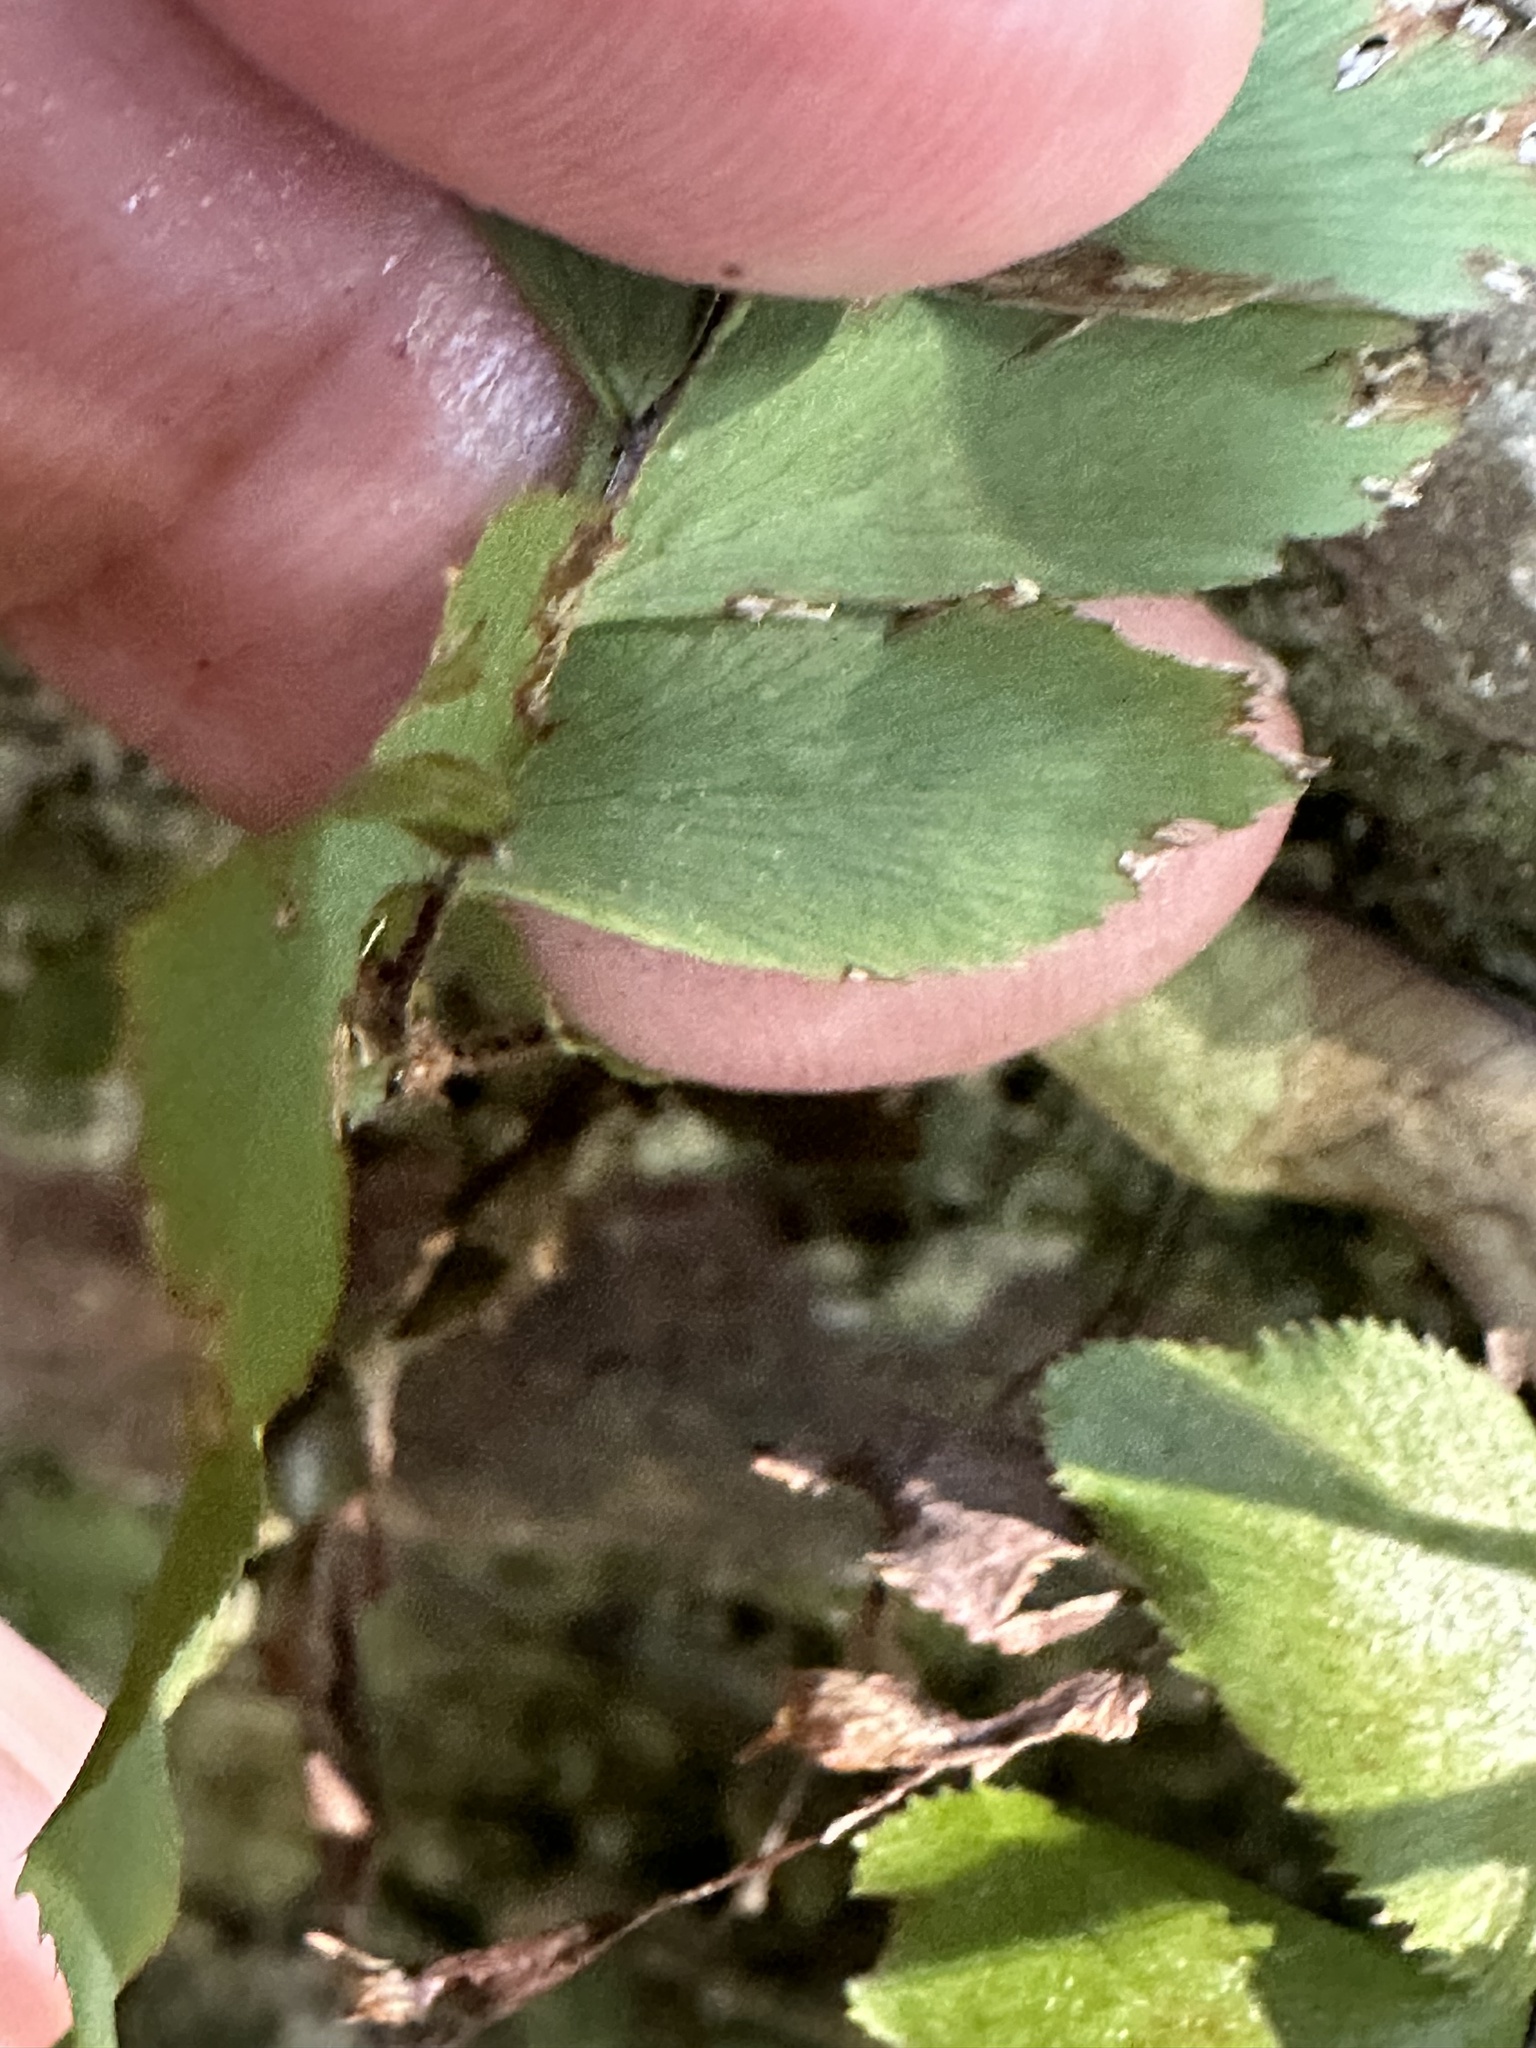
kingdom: Plantae
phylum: Tracheophyta
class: Polypodiopsida
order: Polypodiales
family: Pteridaceae
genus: Adiantum
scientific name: Adiantum latifolium
